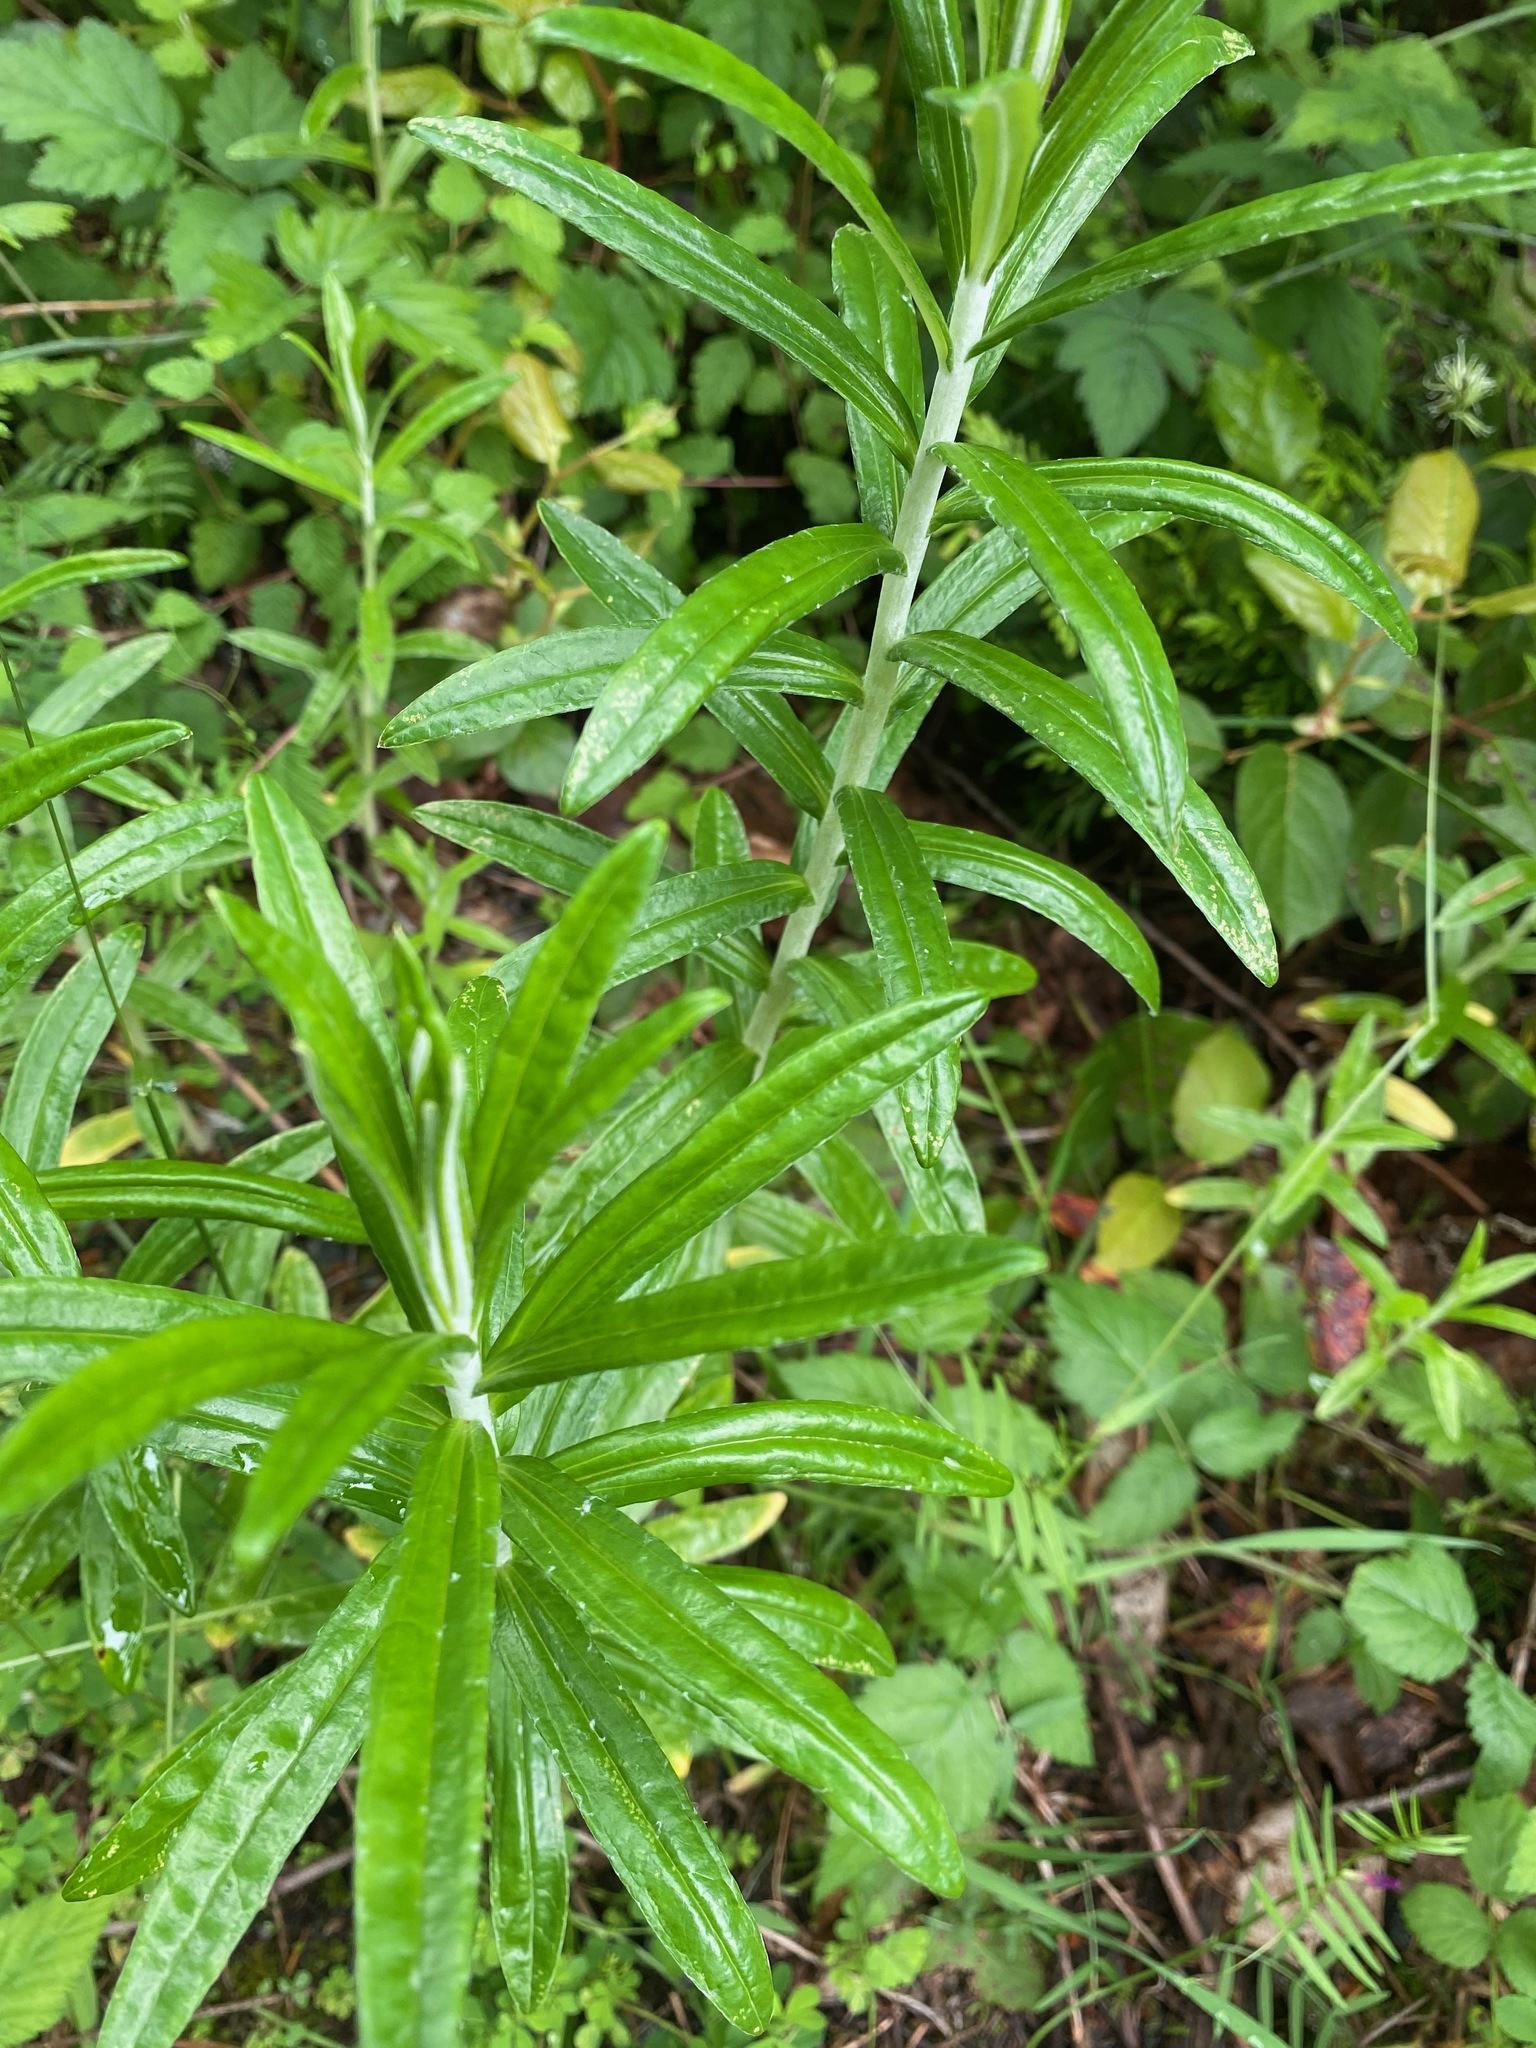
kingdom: Plantae
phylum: Tracheophyta
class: Magnoliopsida
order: Asterales
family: Asteraceae
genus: Anaphalis
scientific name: Anaphalis margaritacea
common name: Pearly everlasting
